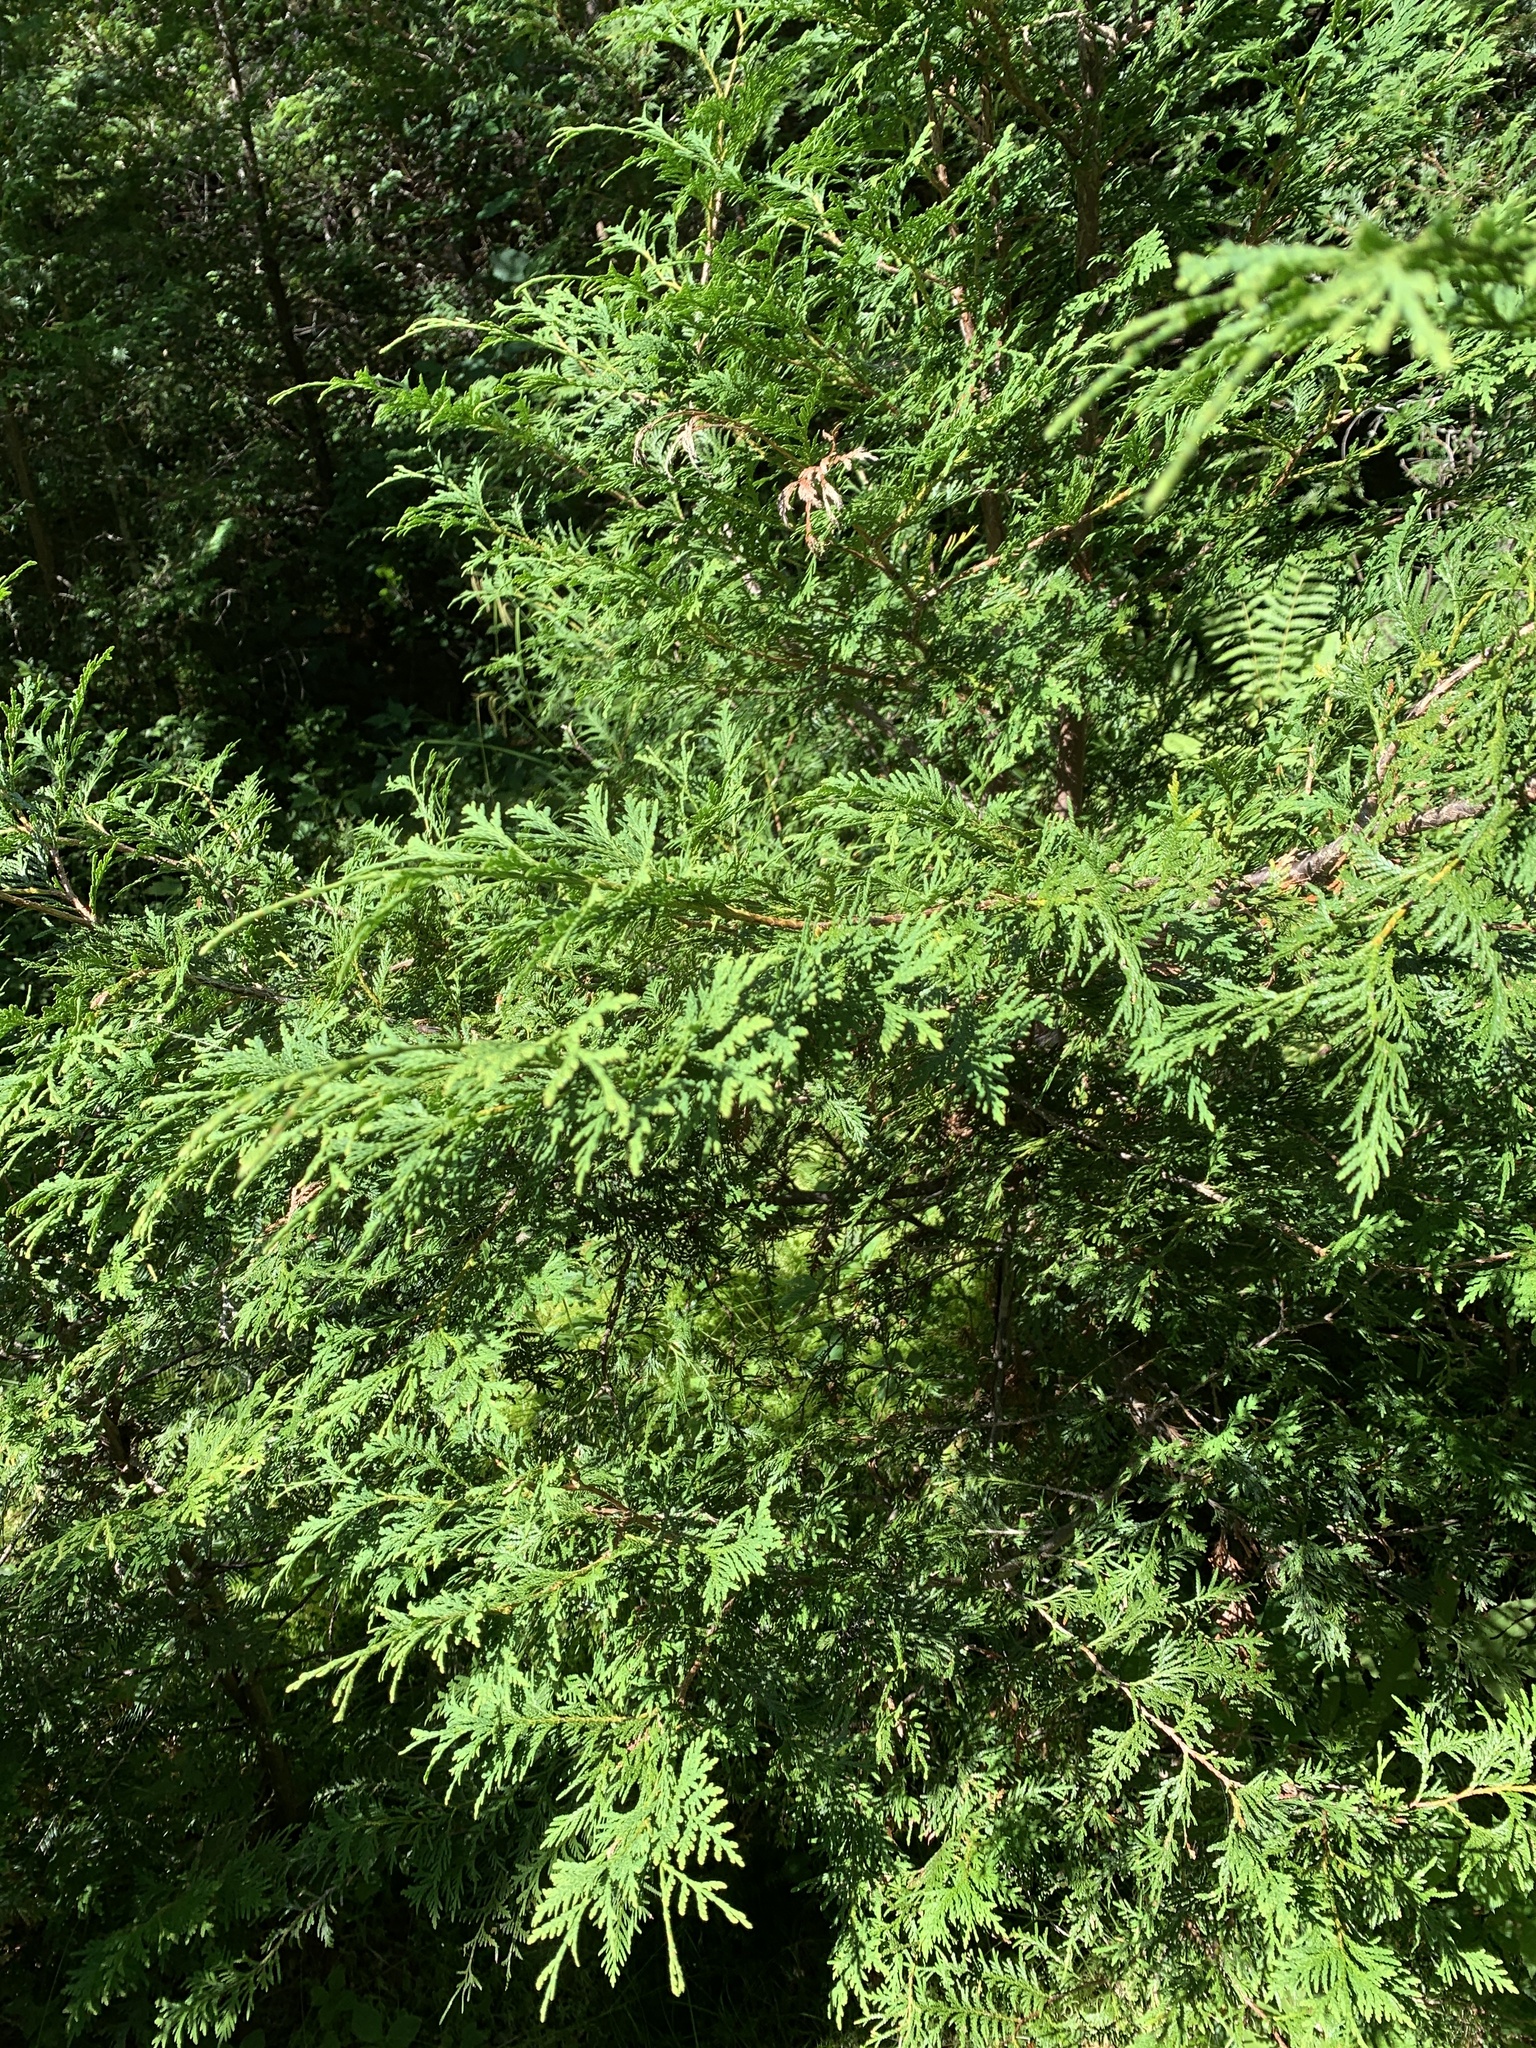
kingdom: Plantae
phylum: Tracheophyta
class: Pinopsida
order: Pinales
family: Cupressaceae
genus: Thuja
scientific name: Thuja occidentalis
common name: Northern white-cedar
